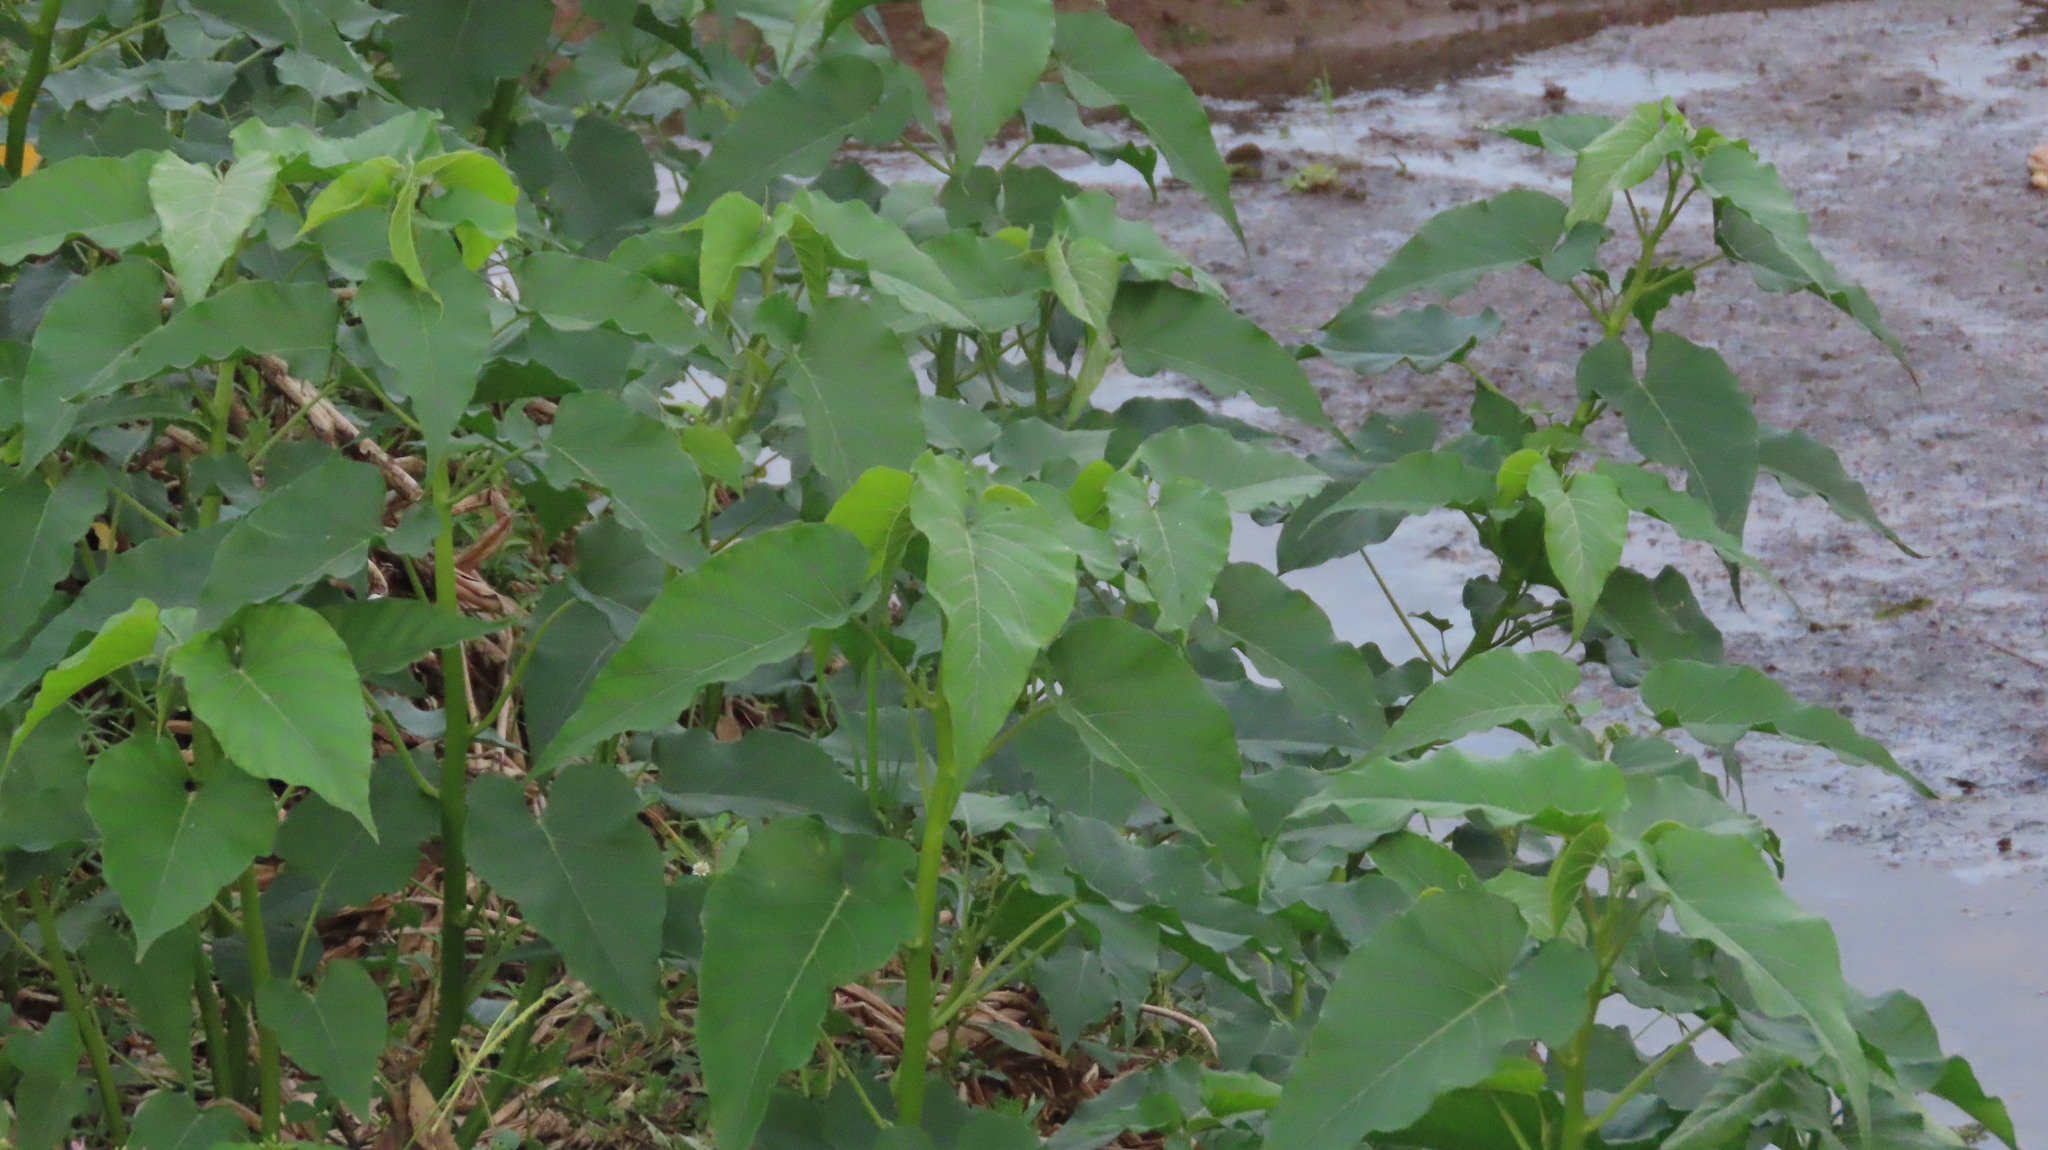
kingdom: Plantae
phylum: Tracheophyta
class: Magnoliopsida
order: Solanales
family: Convolvulaceae
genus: Ipomoea
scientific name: Ipomoea carnea
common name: Morning-glory
